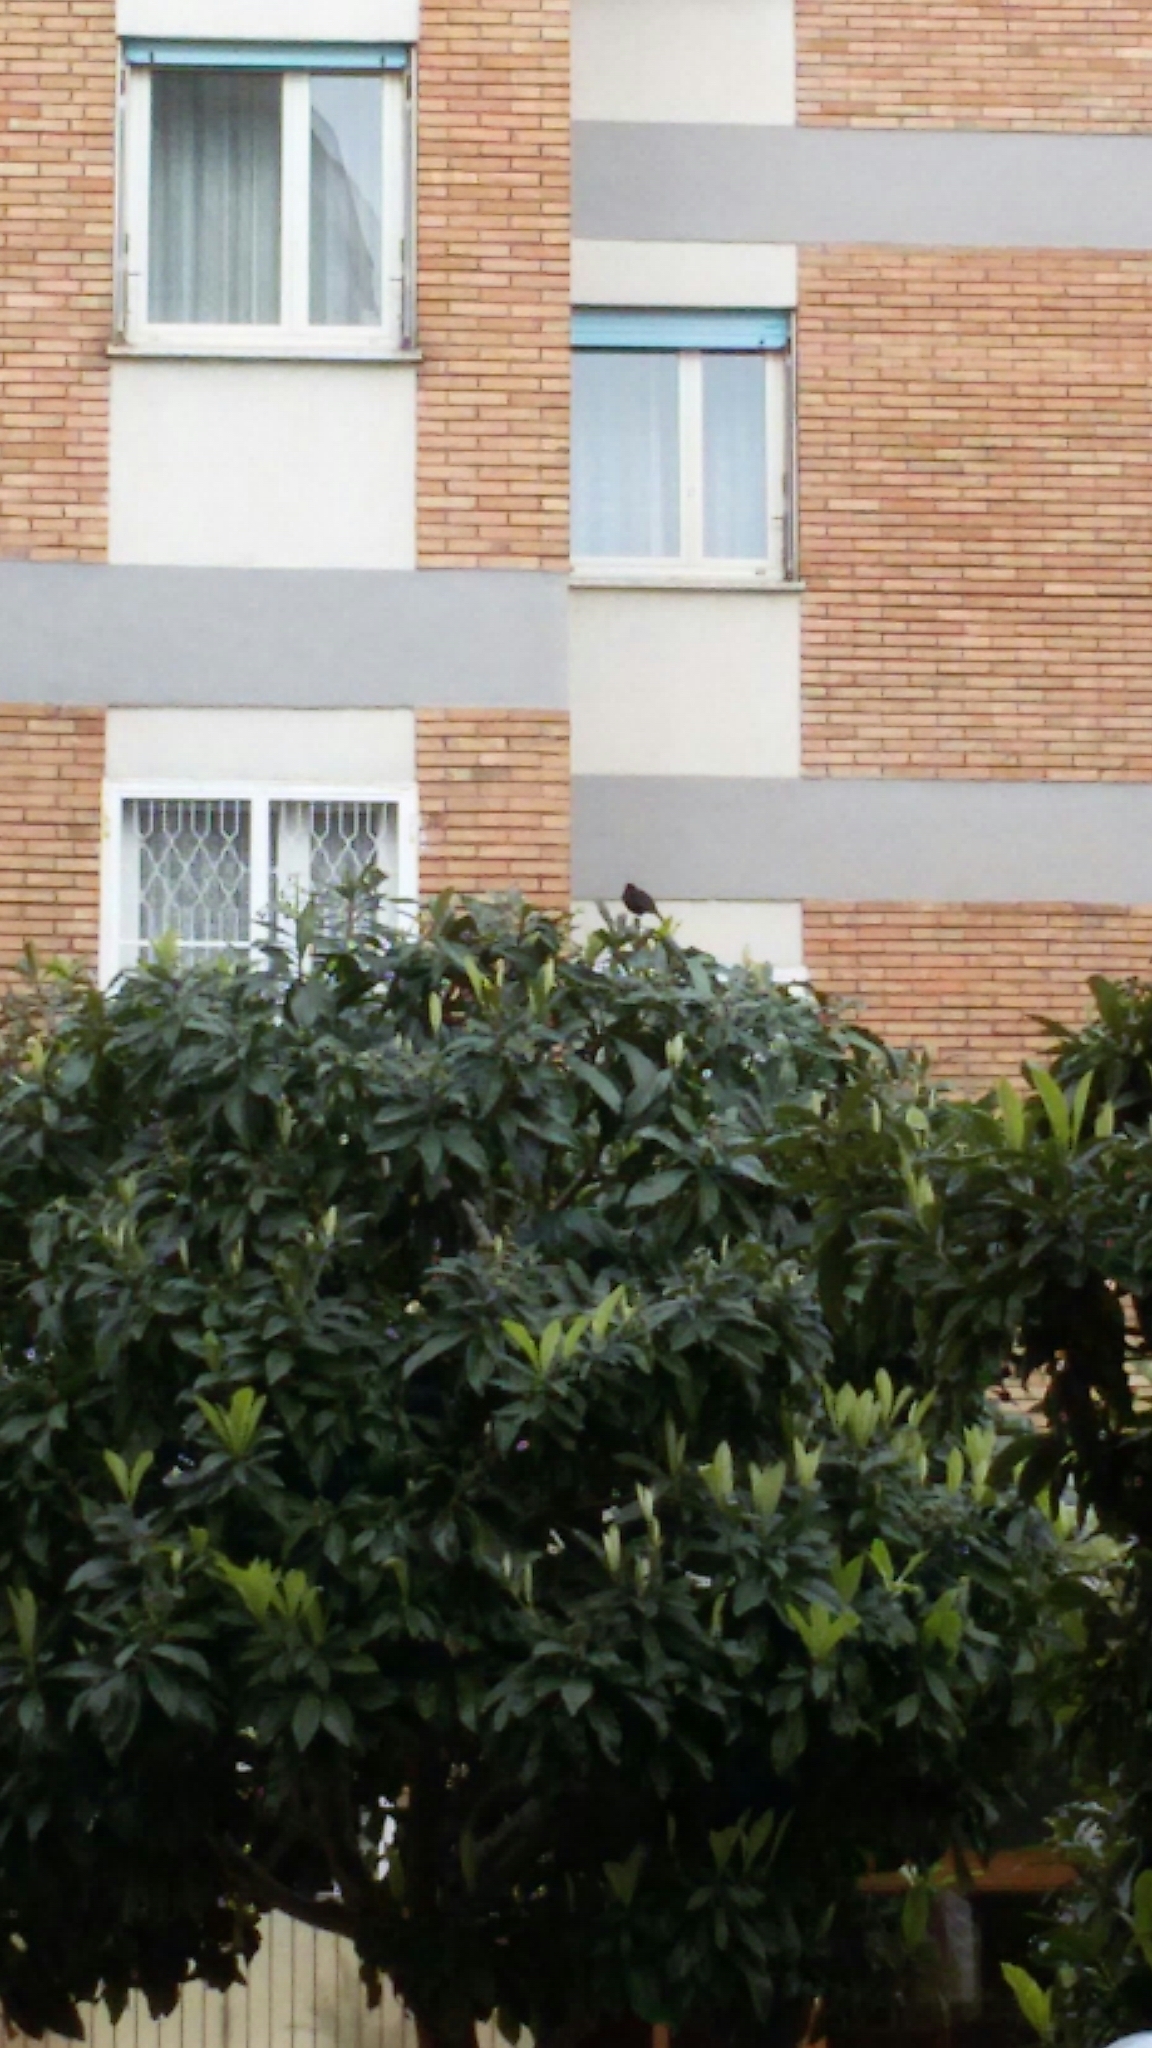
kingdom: Animalia
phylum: Chordata
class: Aves
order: Passeriformes
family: Turdidae
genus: Turdus
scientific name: Turdus merula
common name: Common blackbird
